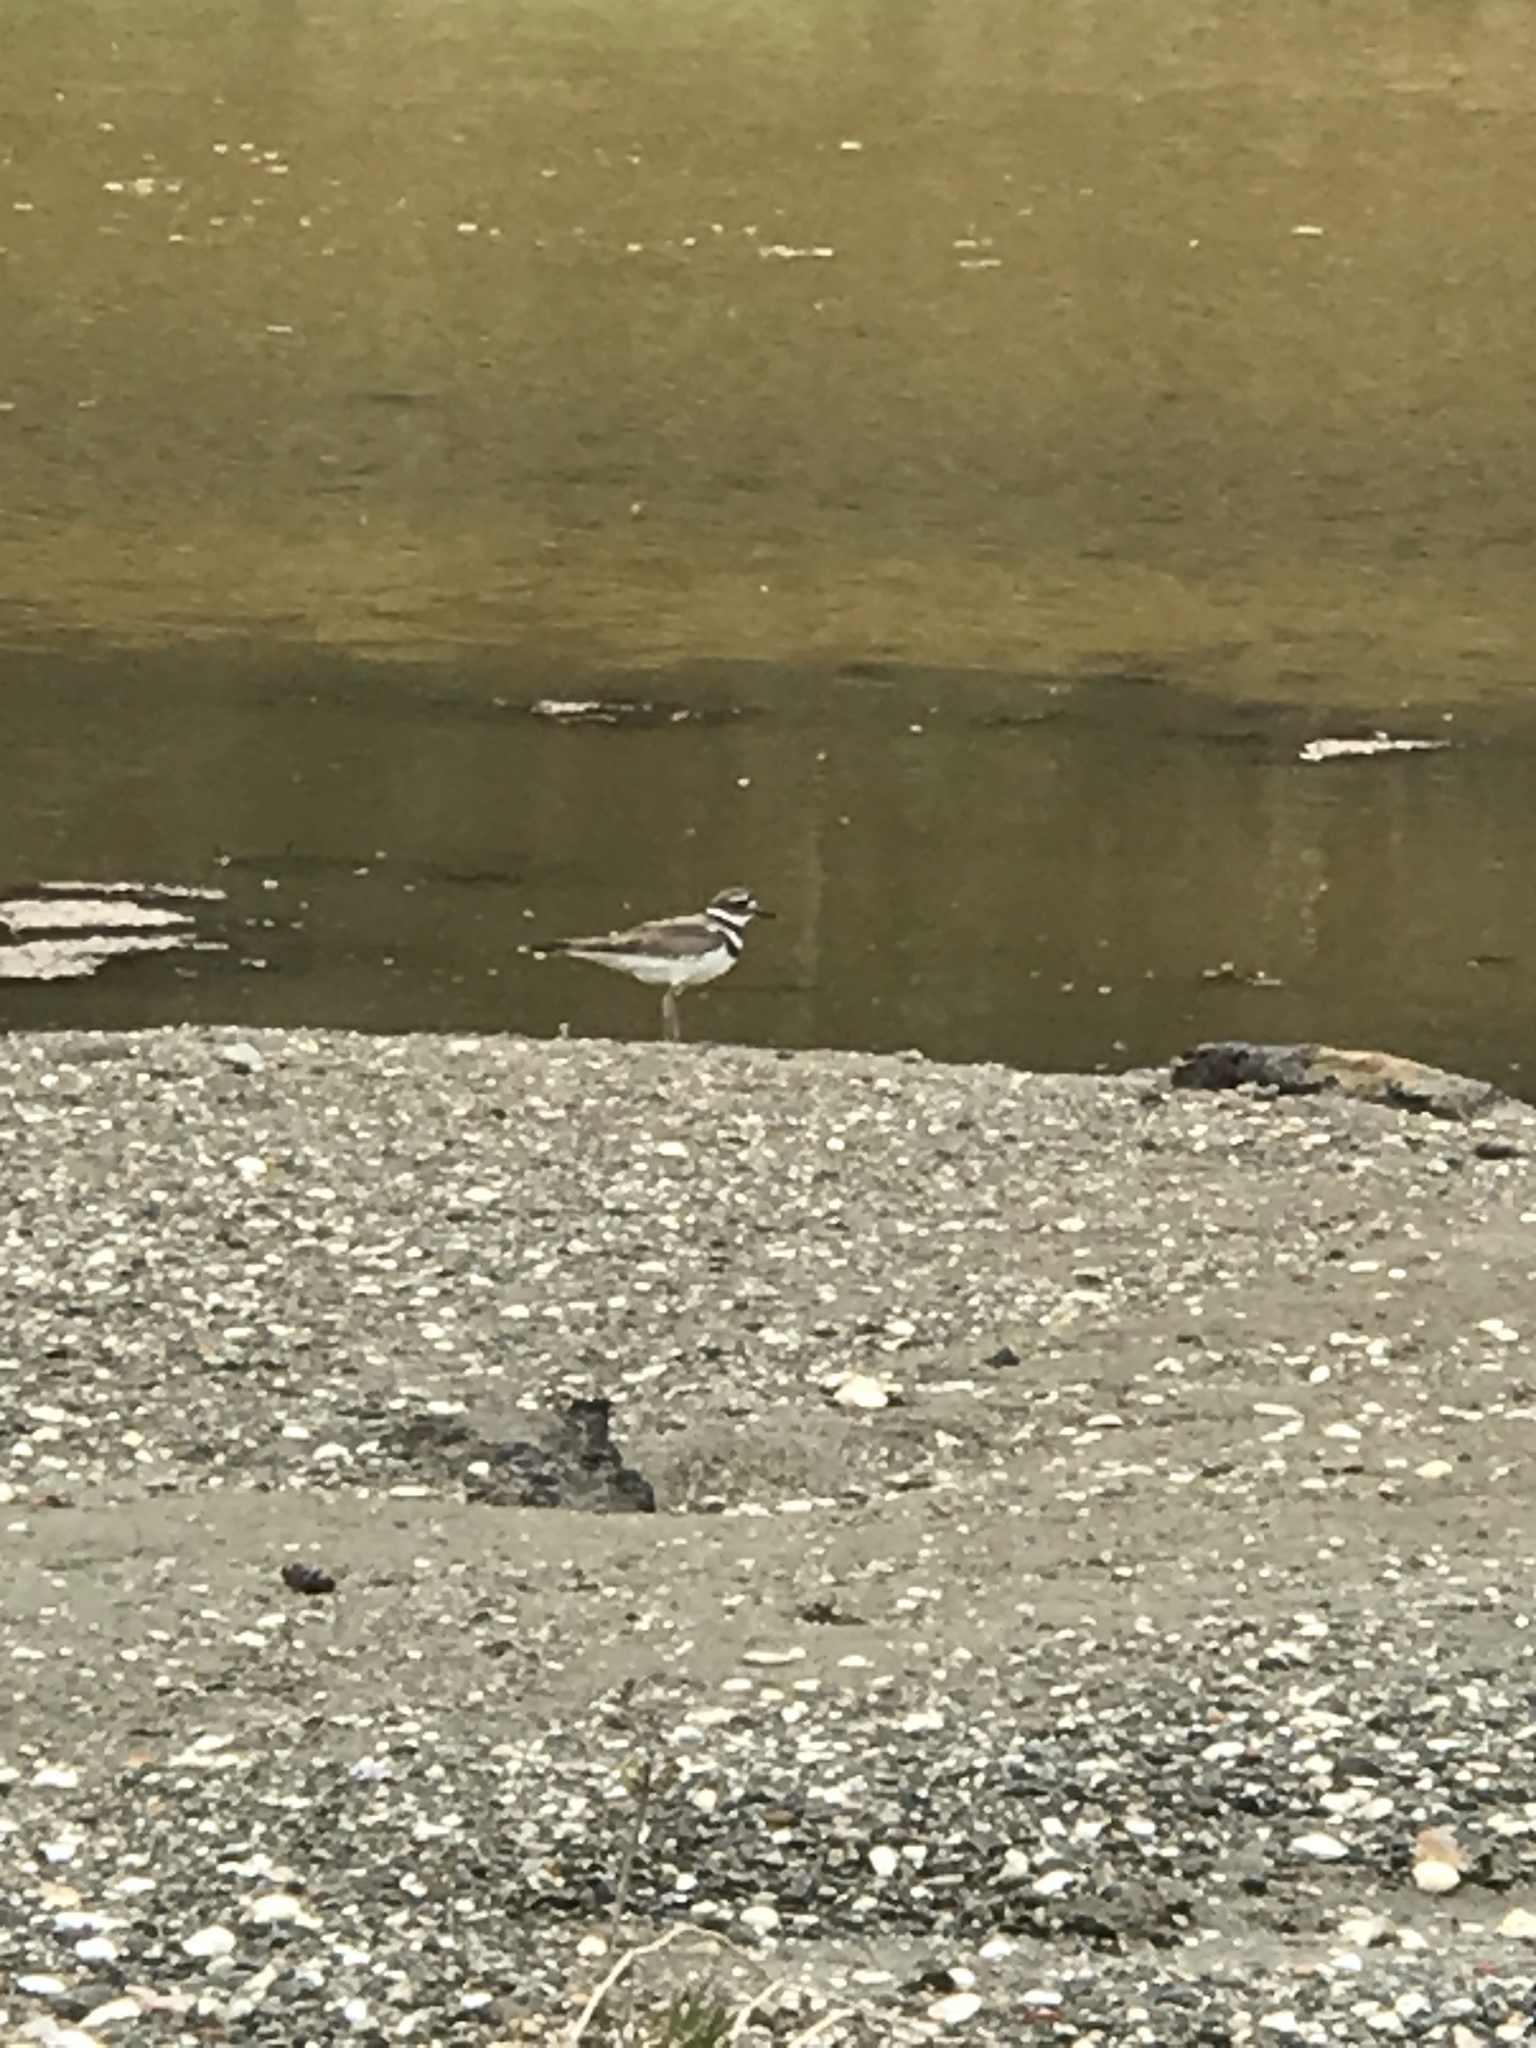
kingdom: Animalia
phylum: Chordata
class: Aves
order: Charadriiformes
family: Charadriidae
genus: Charadrius
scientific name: Charadrius vociferus
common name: Killdeer
